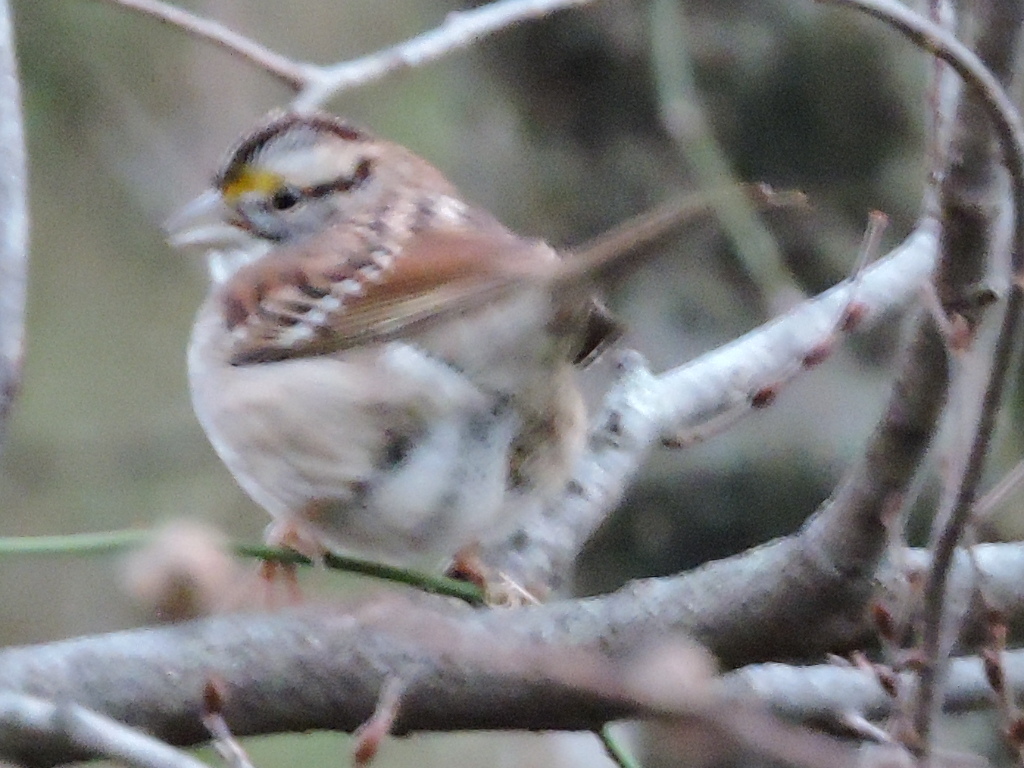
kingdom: Animalia
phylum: Chordata
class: Aves
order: Passeriformes
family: Passerellidae
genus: Zonotrichia
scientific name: Zonotrichia albicollis
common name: White-throated sparrow
